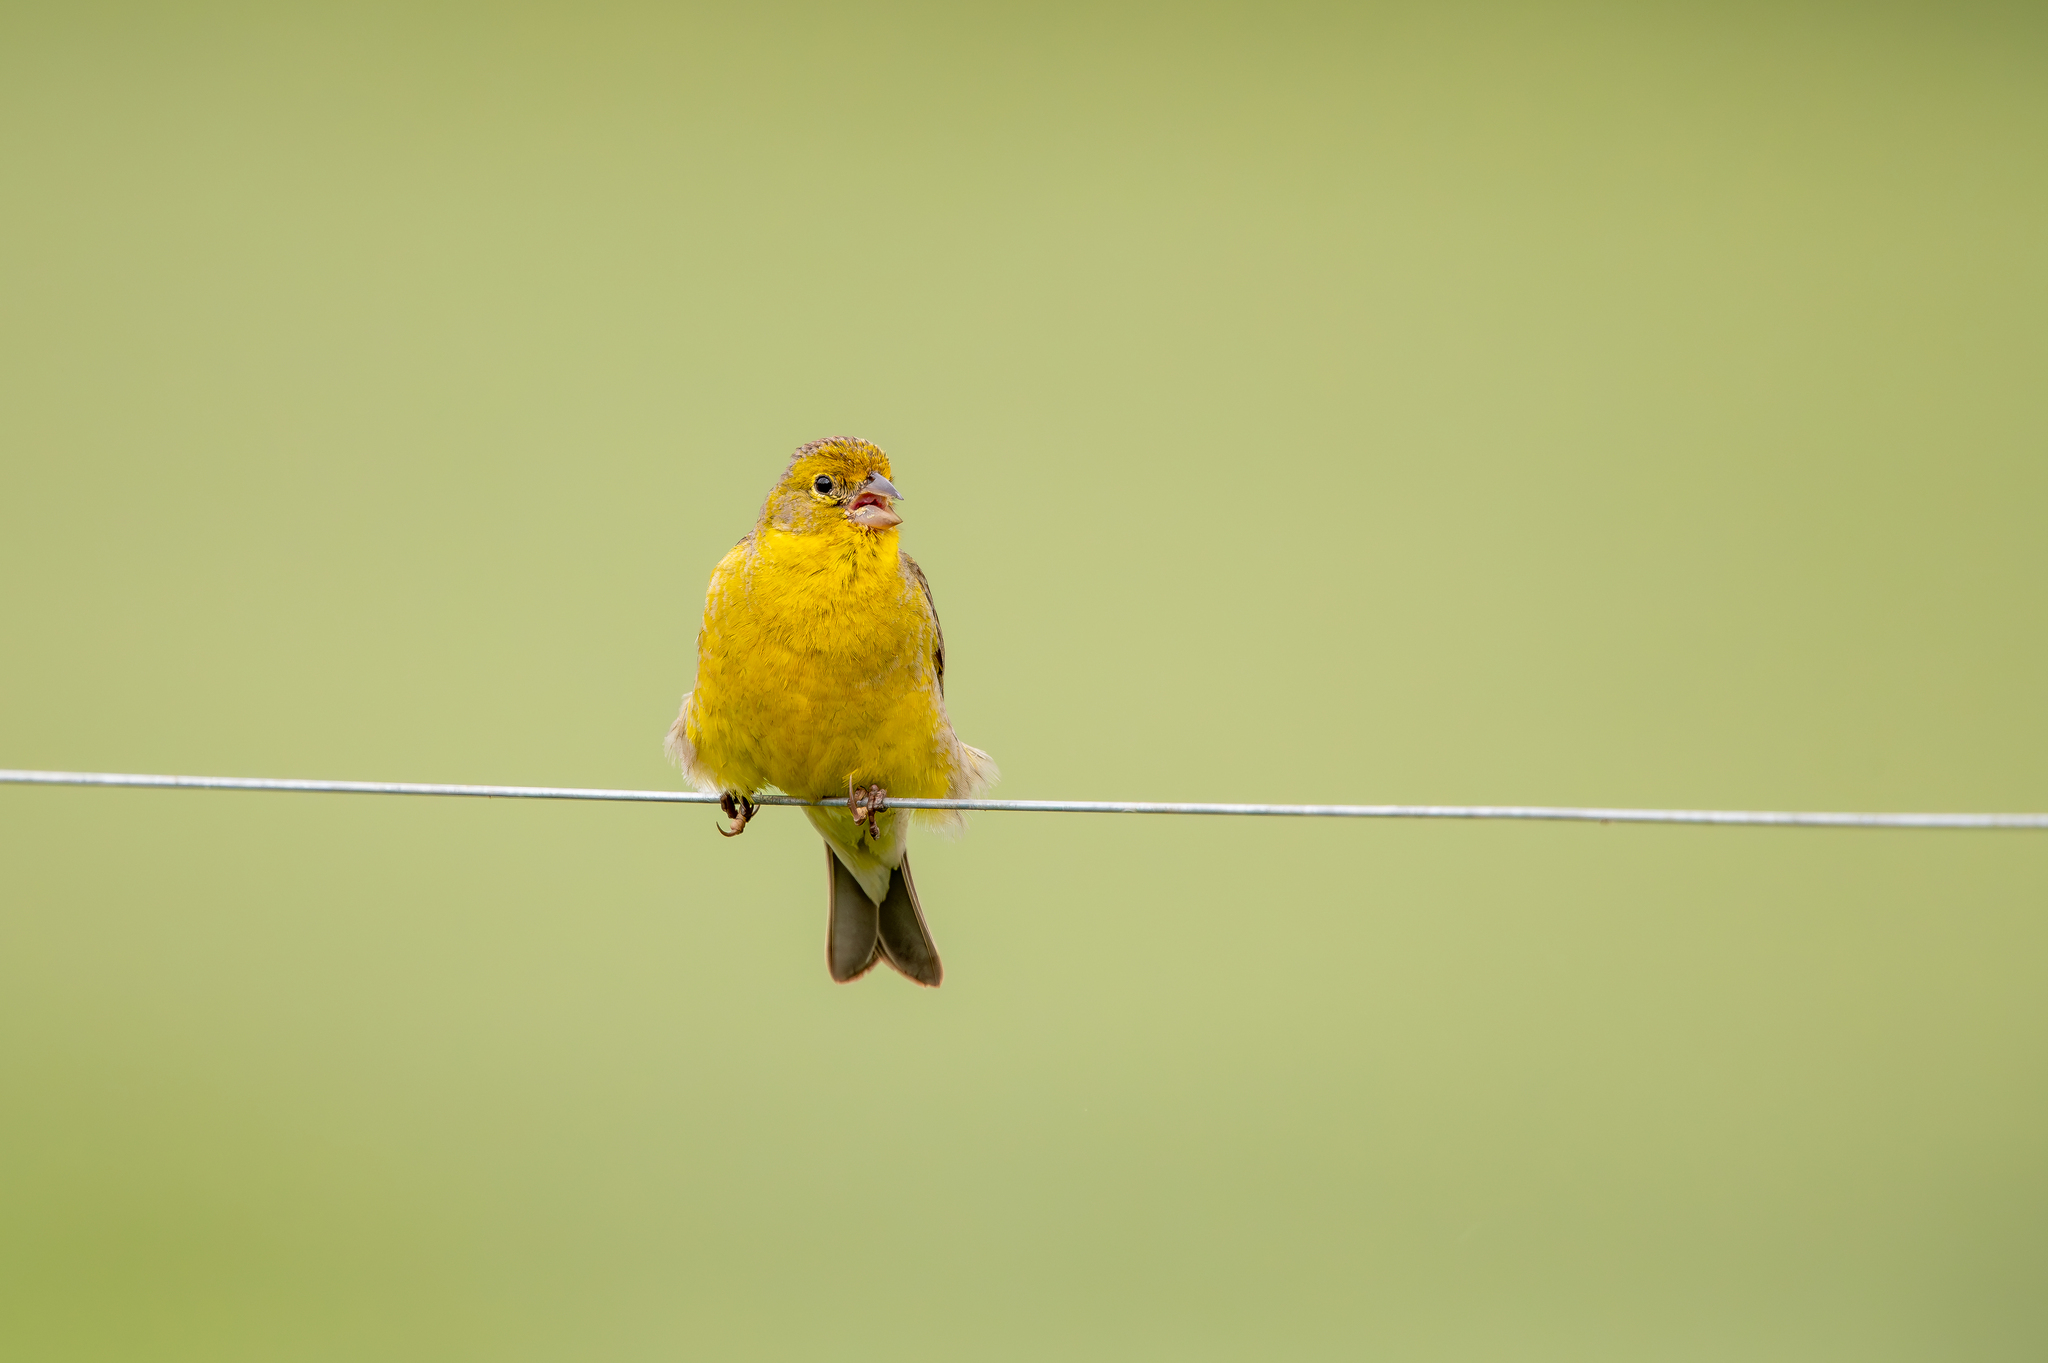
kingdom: Animalia
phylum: Chordata
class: Aves
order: Passeriformes
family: Thraupidae
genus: Sicalis
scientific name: Sicalis luteola
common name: Grassland yellow-finch
